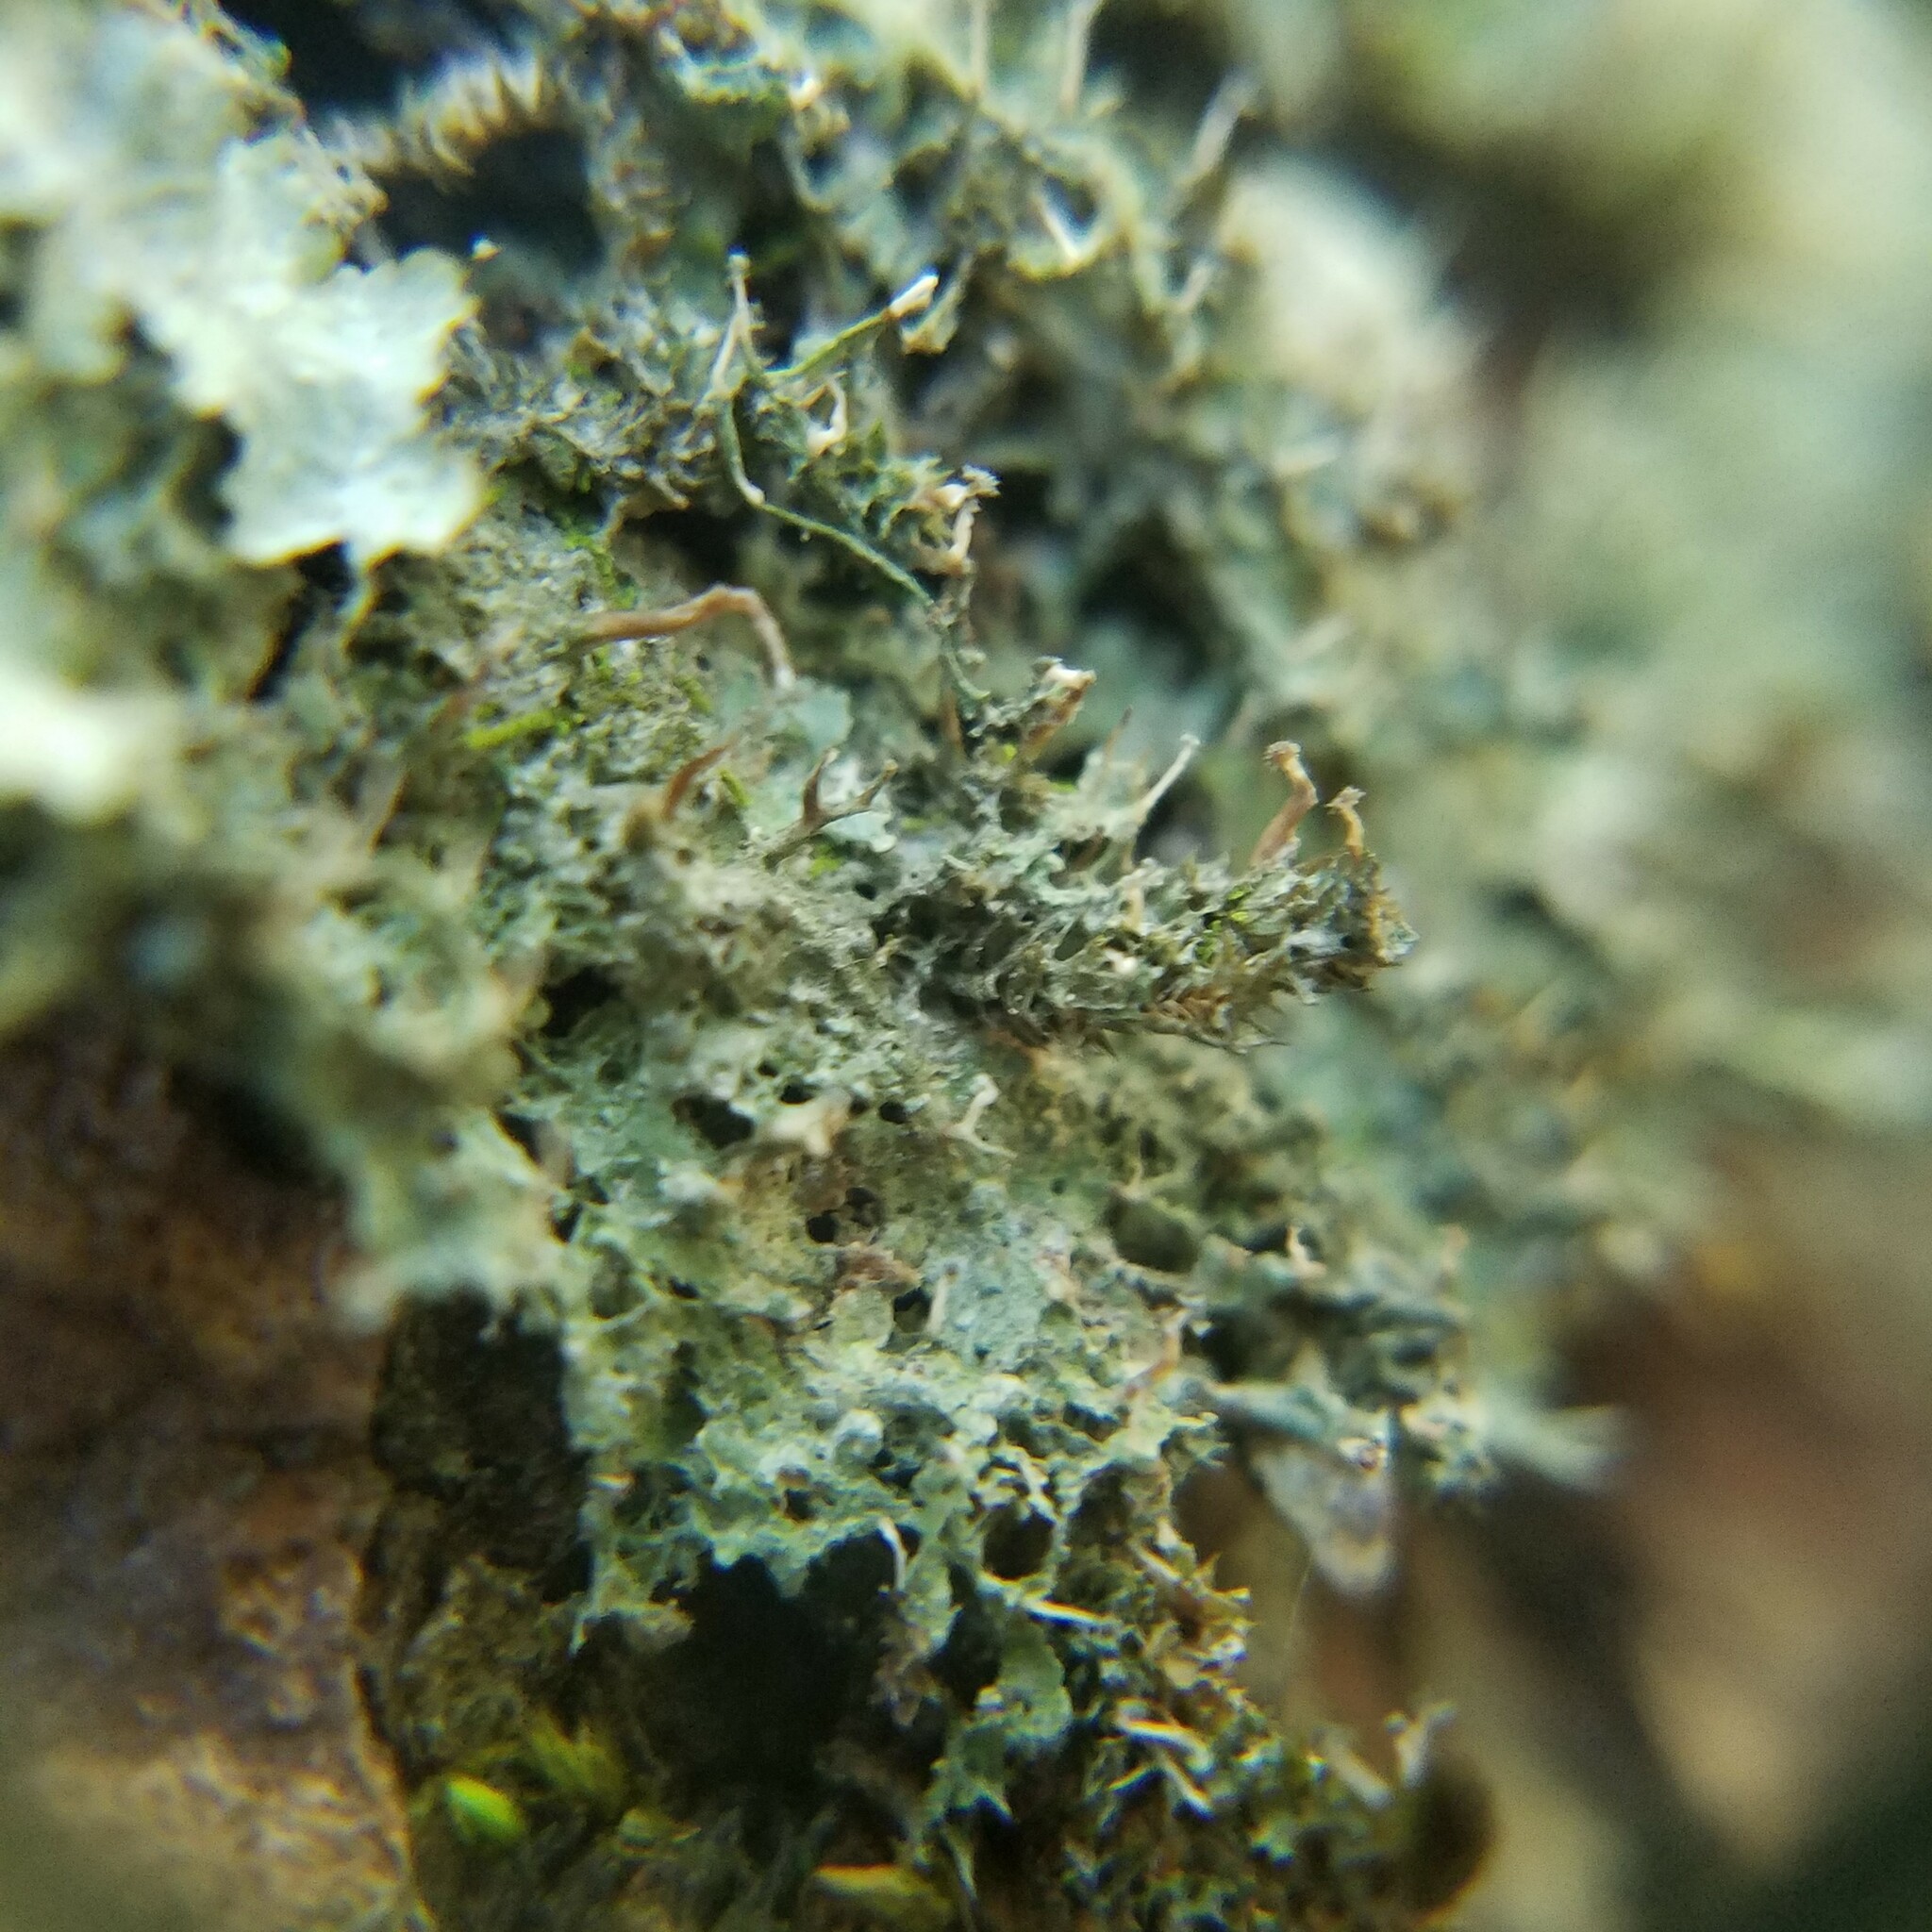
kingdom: Fungi
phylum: Ascomycota
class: Lecanoromycetes
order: Ostropales
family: Gomphillaceae
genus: Gomphillus
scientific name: Gomphillus americanus
